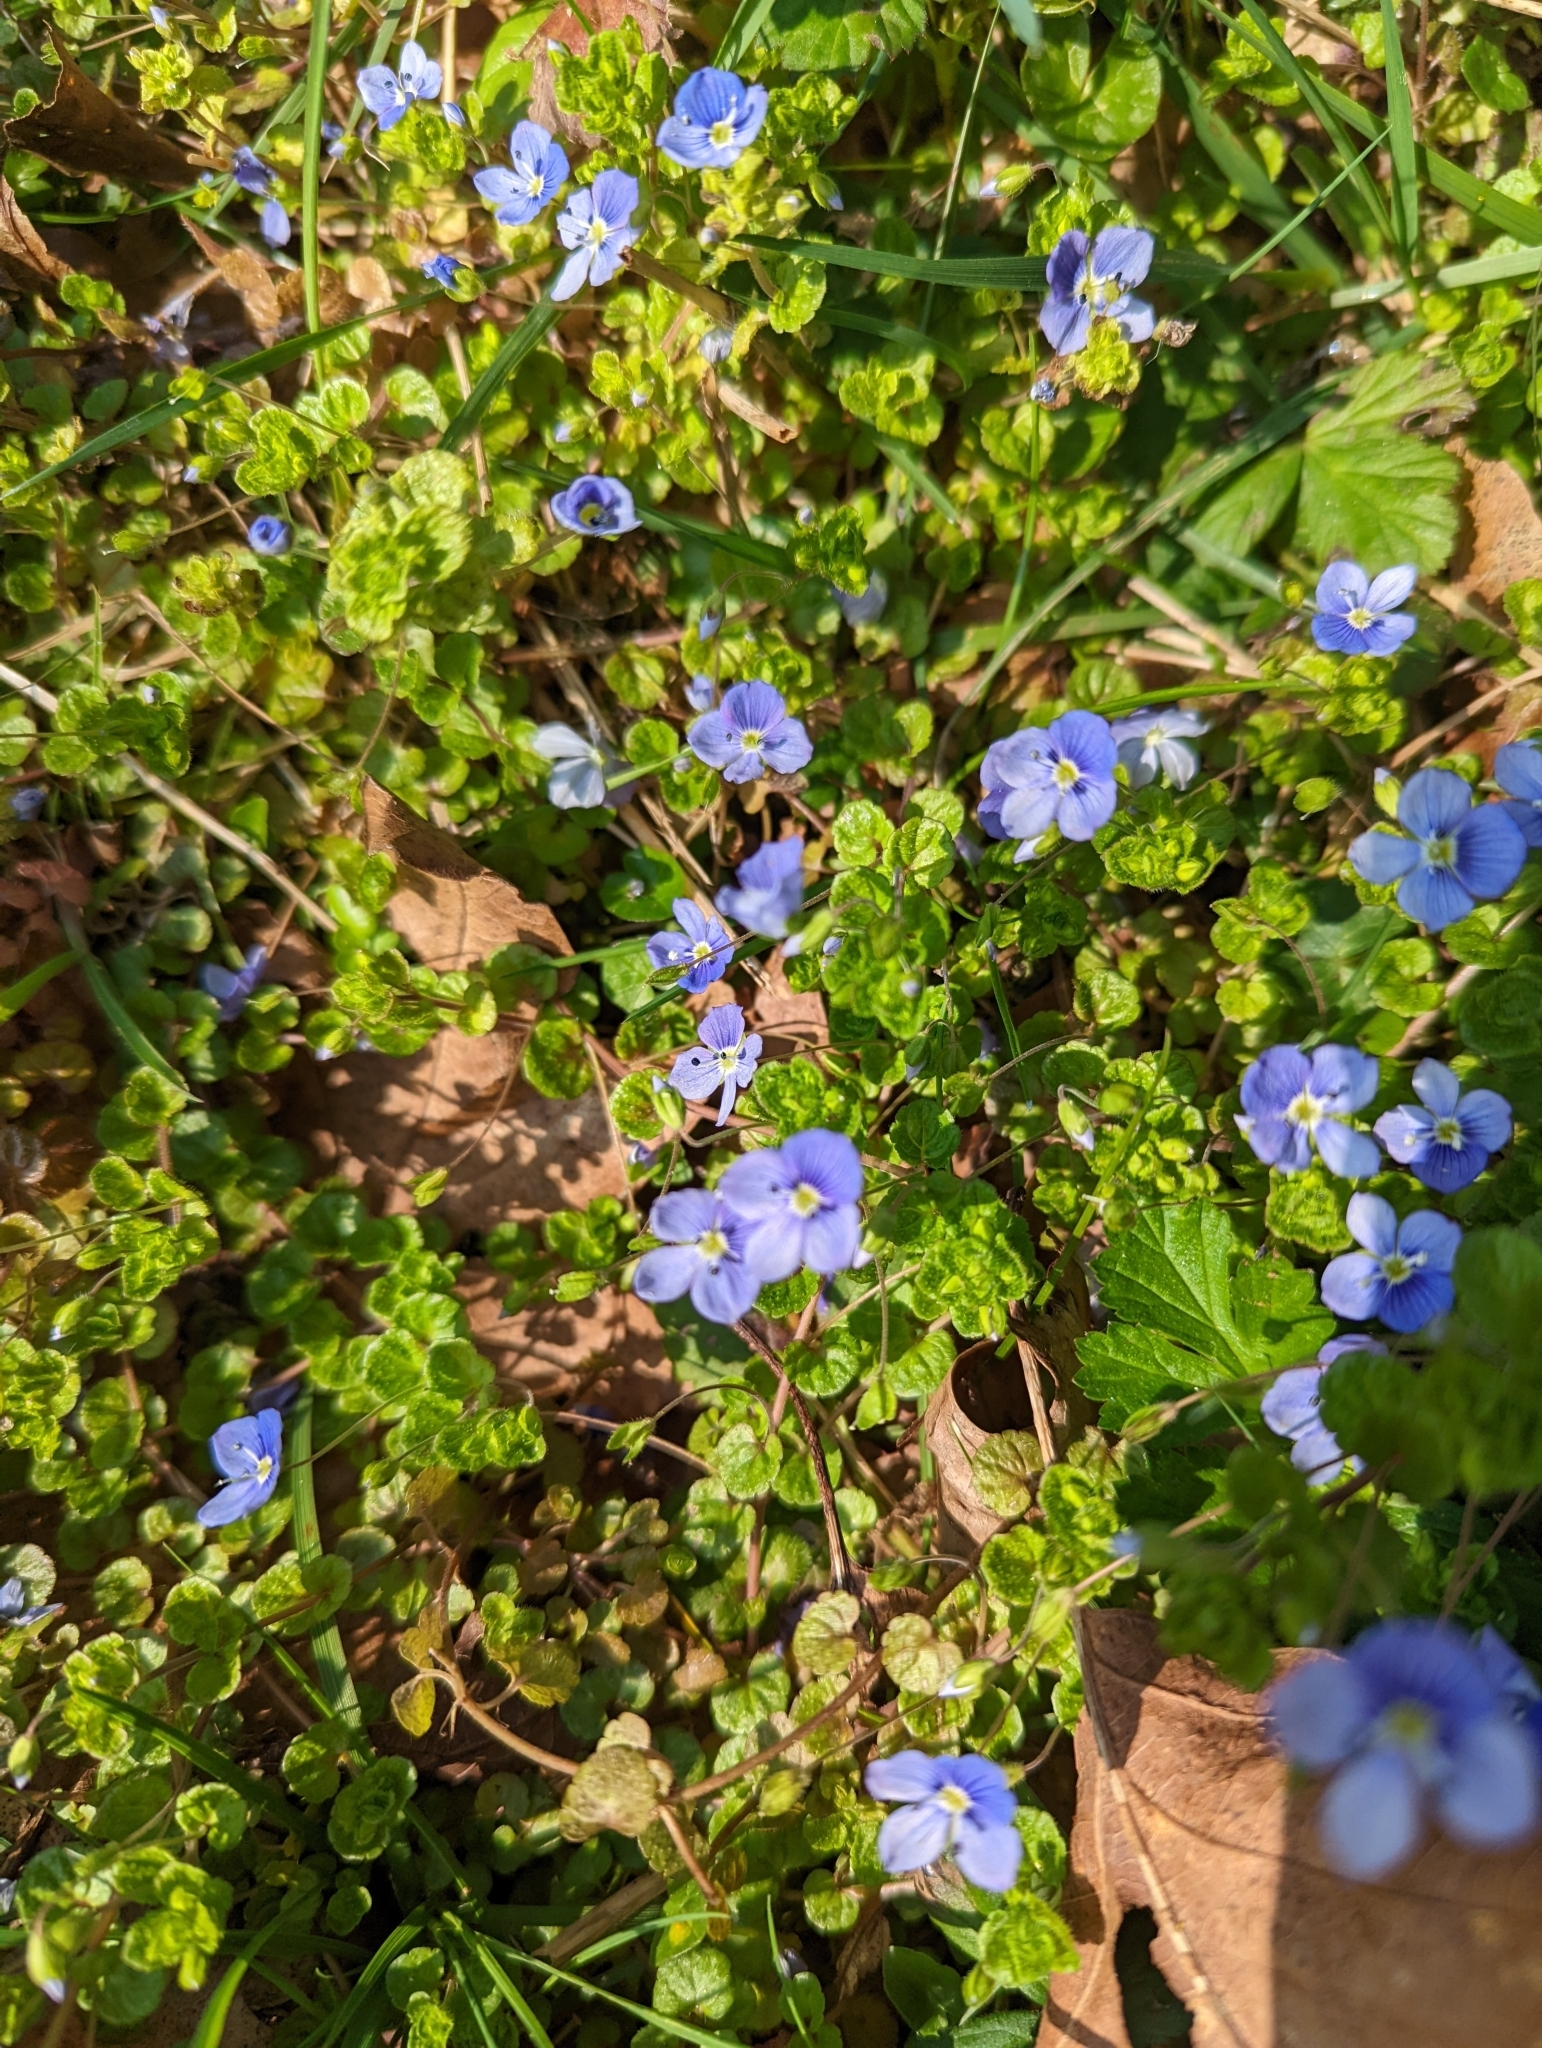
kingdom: Plantae
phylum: Tracheophyta
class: Magnoliopsida
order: Lamiales
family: Plantaginaceae
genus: Veronica
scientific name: Veronica filiformis
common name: Slender speedwell
